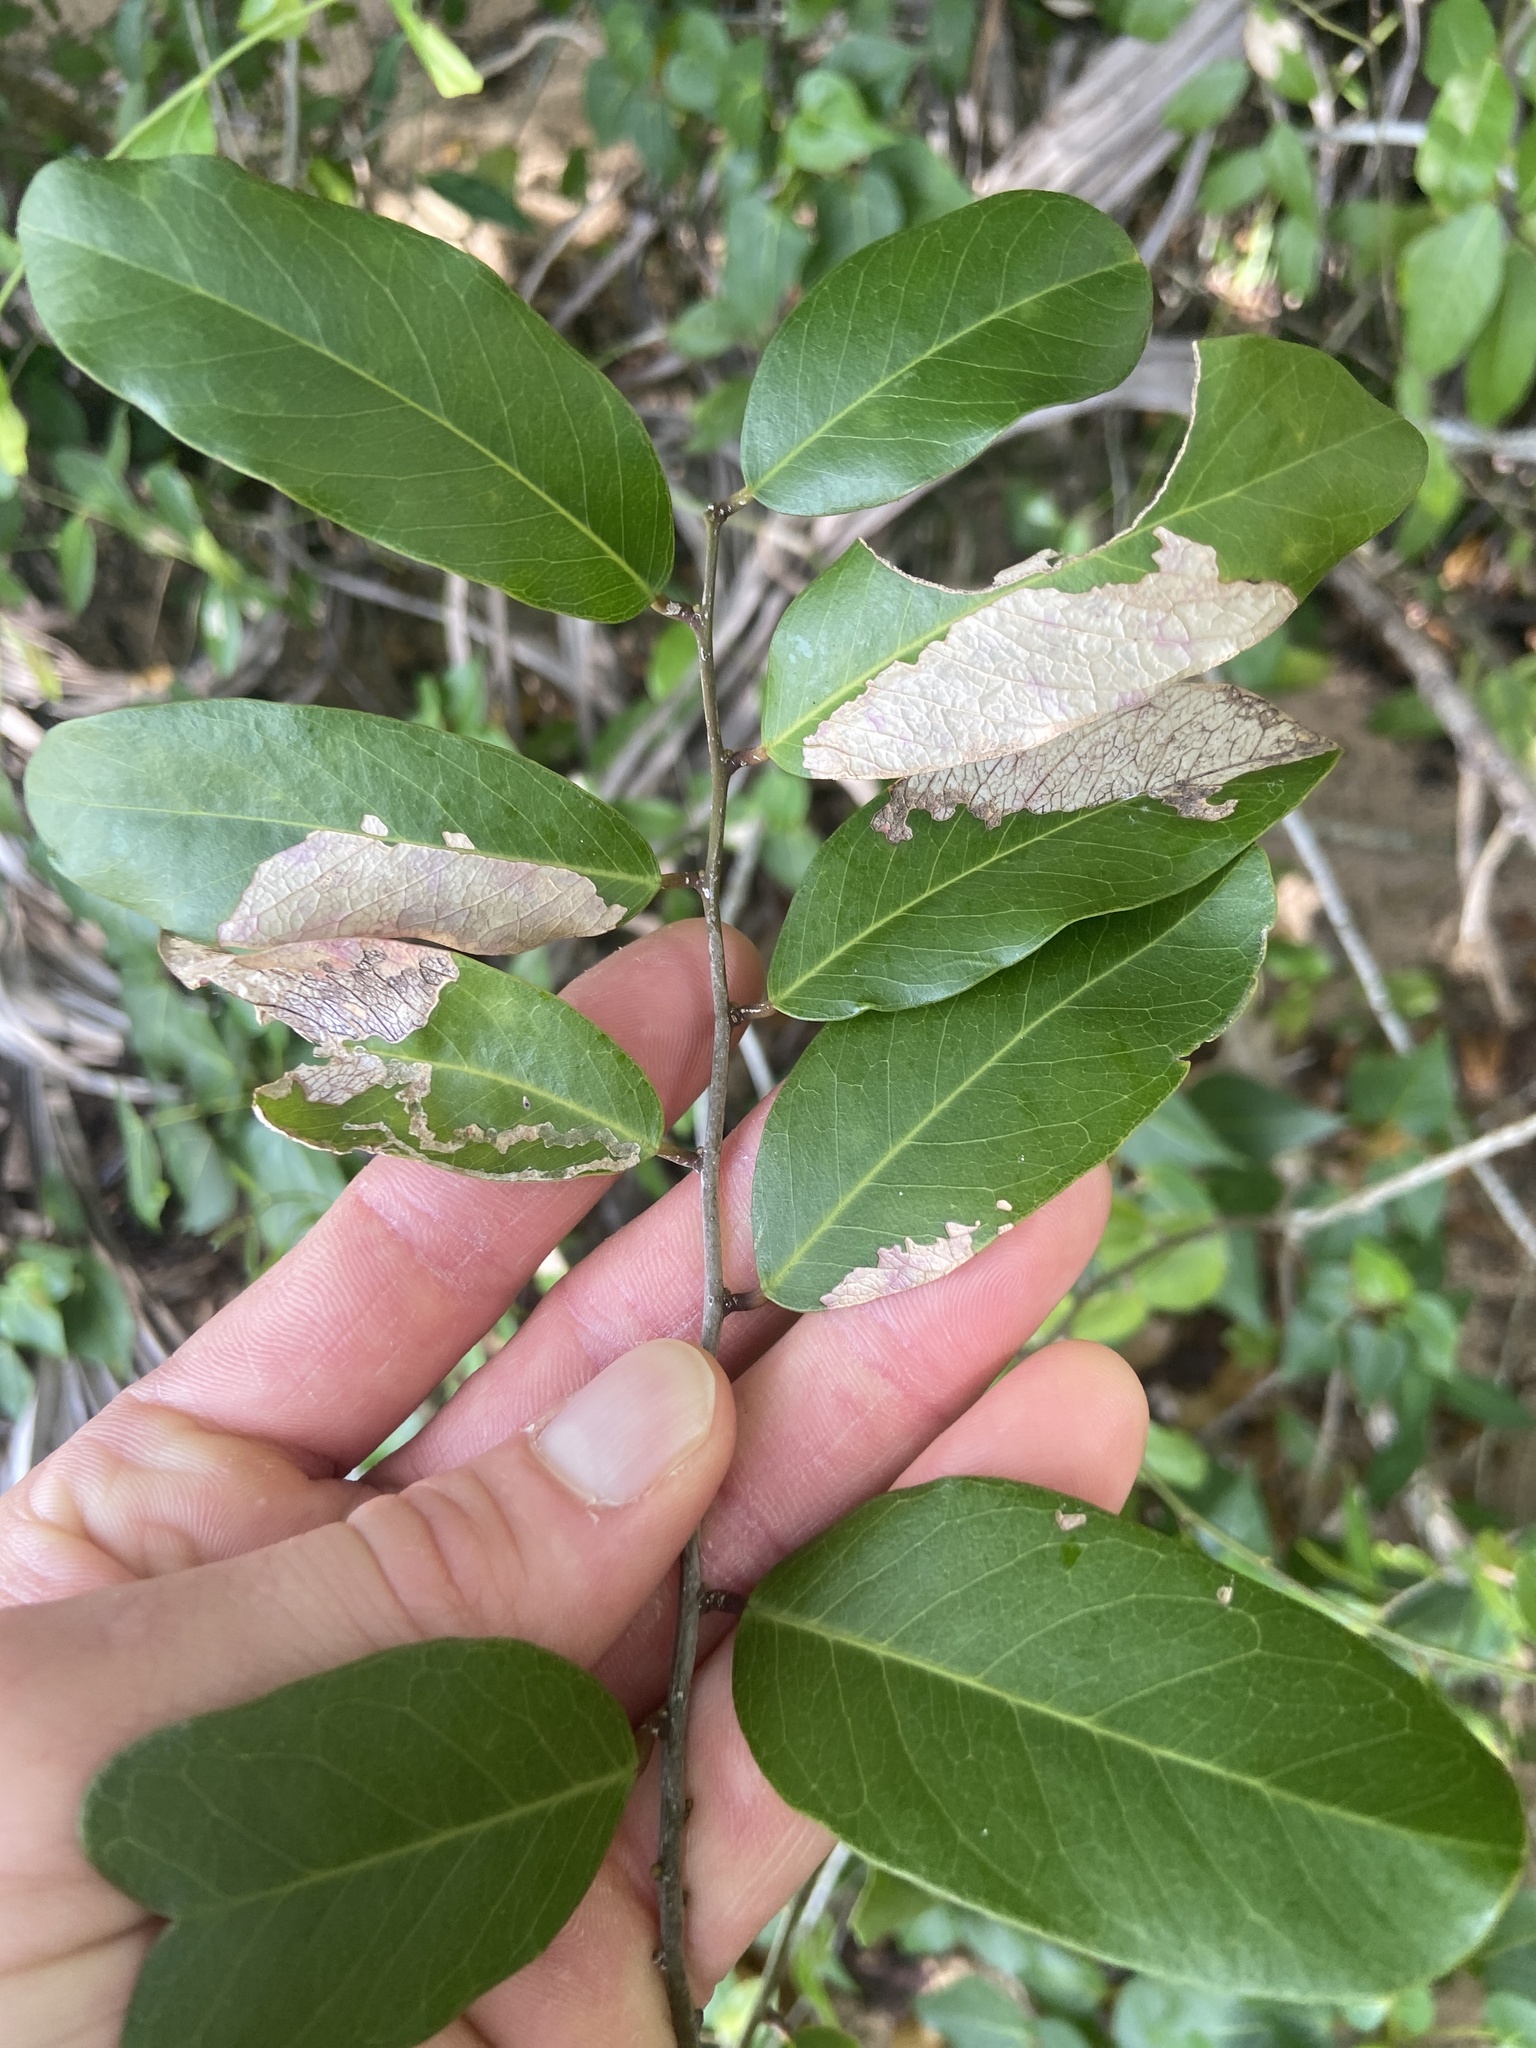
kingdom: Plantae
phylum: Tracheophyta
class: Magnoliopsida
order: Brassicales
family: Capparaceae
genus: Cynophalla
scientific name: Cynophalla flexuosa
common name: Capertree
